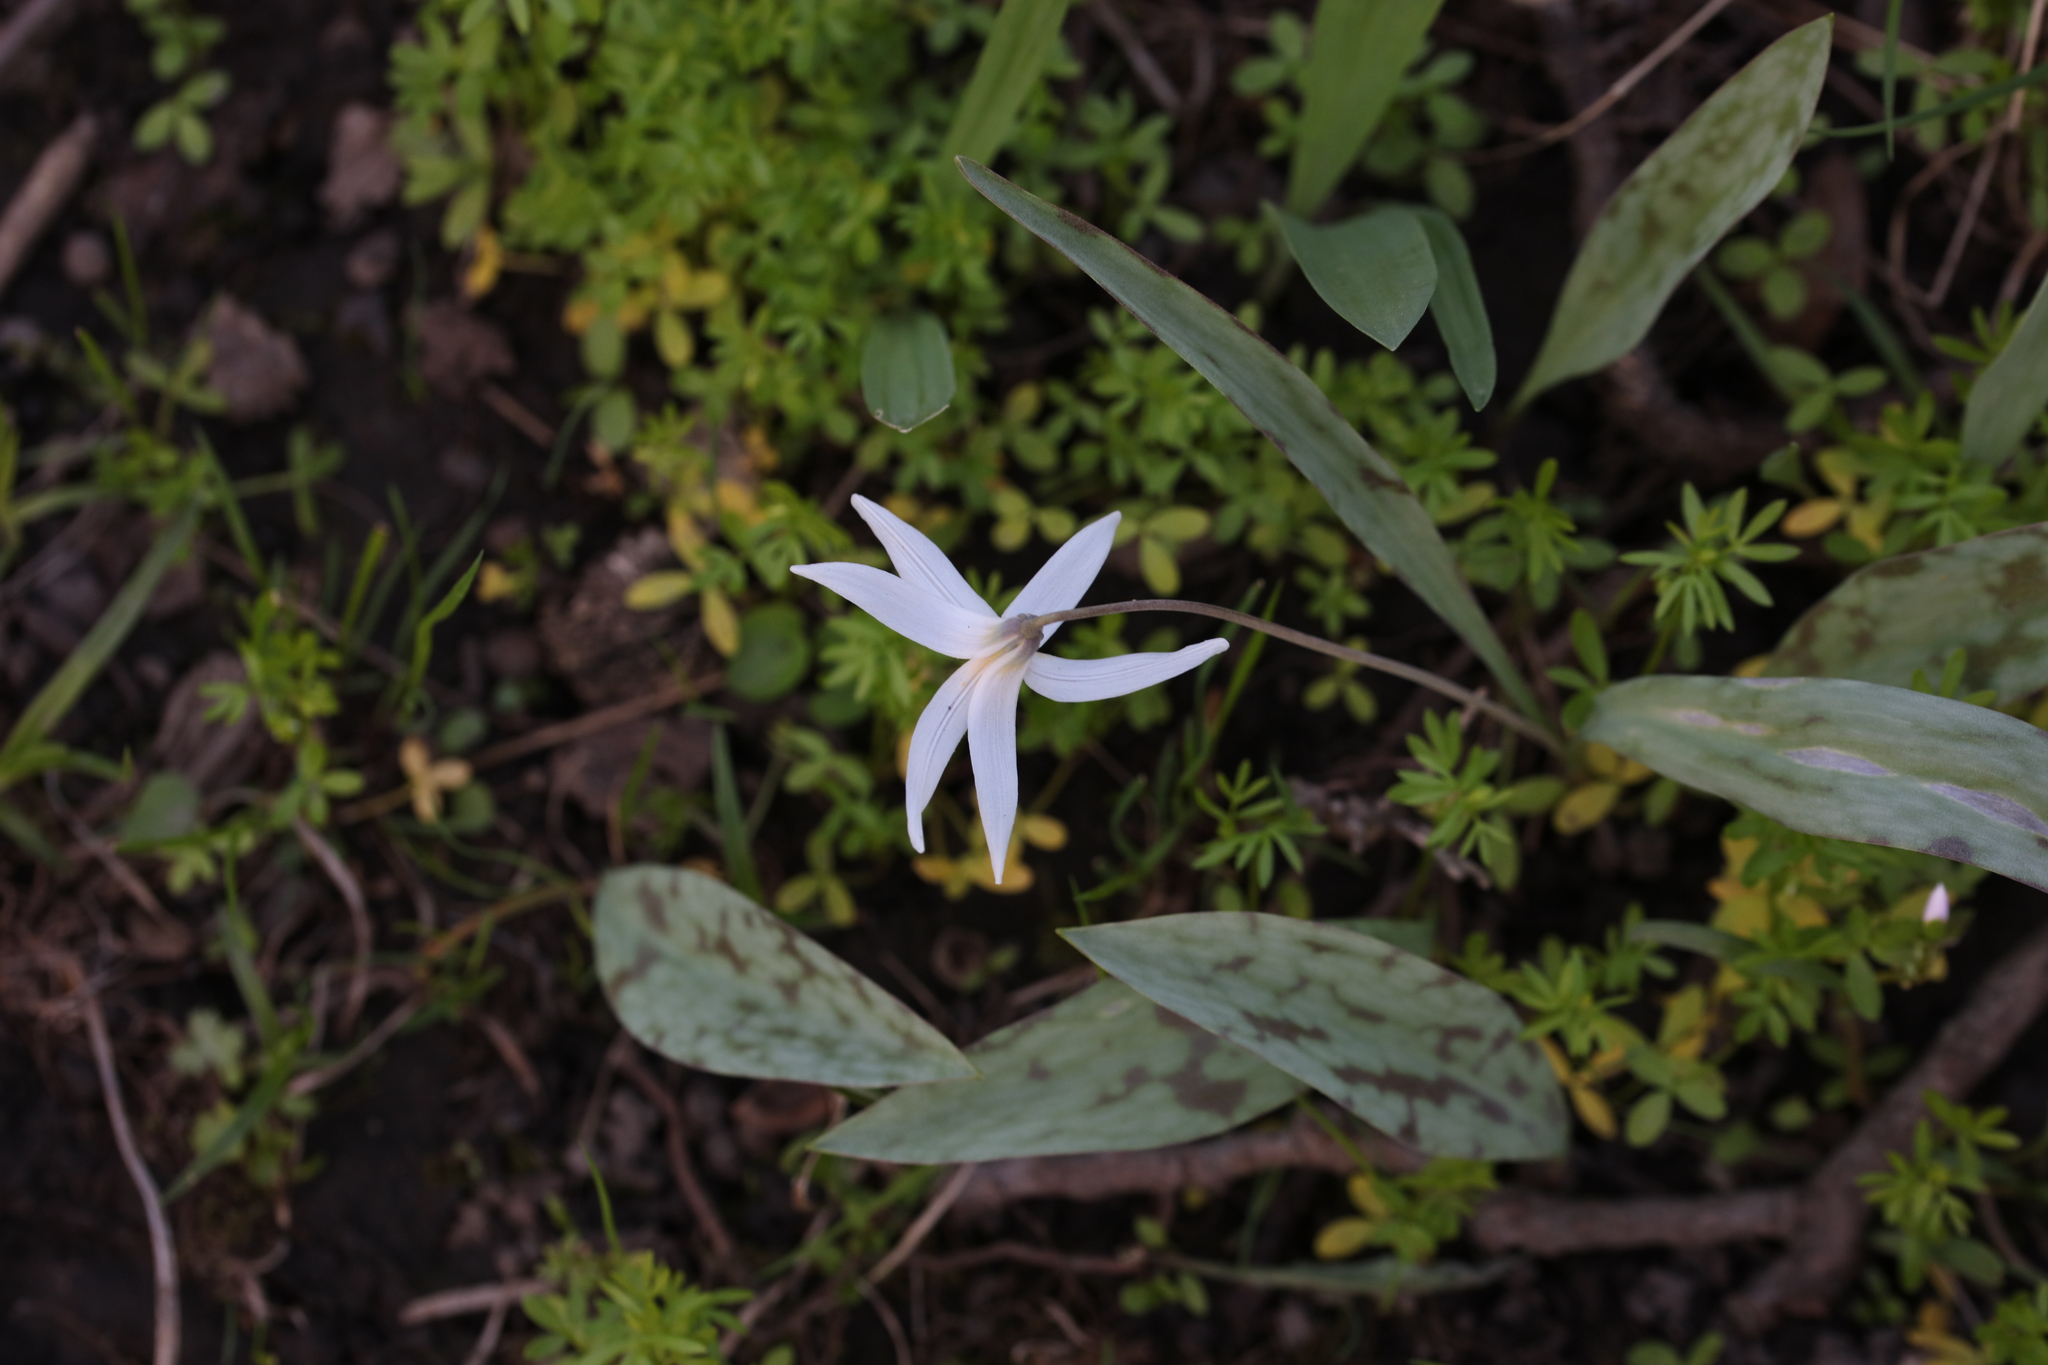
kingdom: Plantae
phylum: Tracheophyta
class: Liliopsida
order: Liliales
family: Liliaceae
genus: Erythronium
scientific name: Erythronium albidum
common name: White trout-lily
